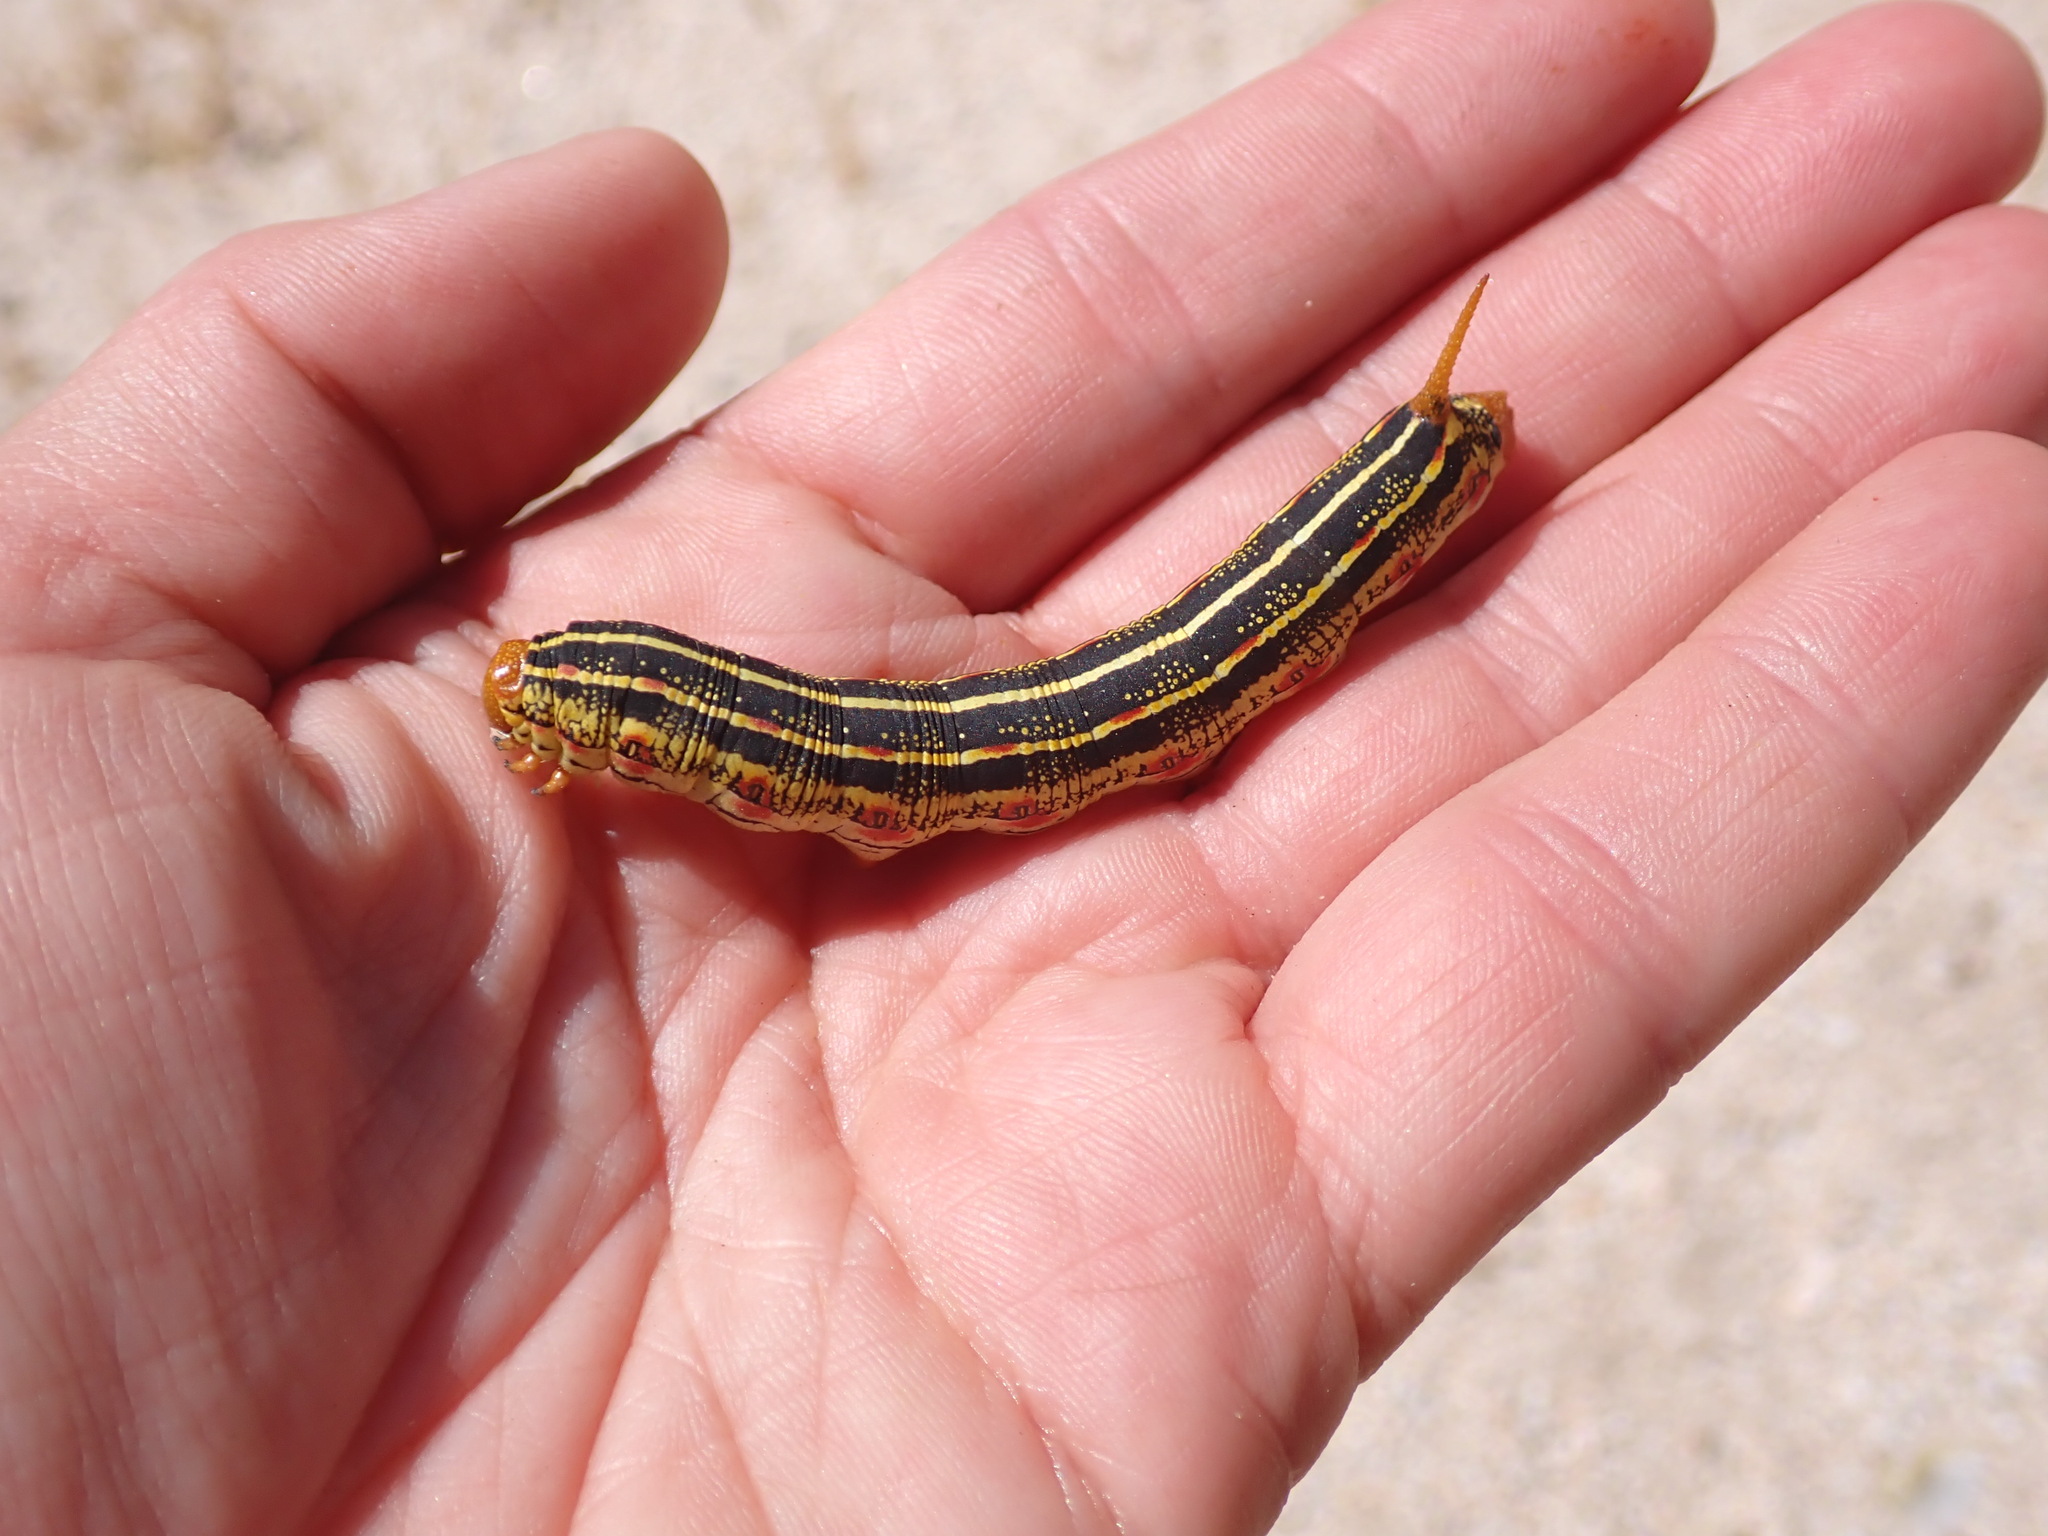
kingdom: Animalia
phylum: Arthropoda
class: Insecta
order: Lepidoptera
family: Sphingidae
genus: Hyles
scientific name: Hyles lineata
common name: White-lined sphinx
